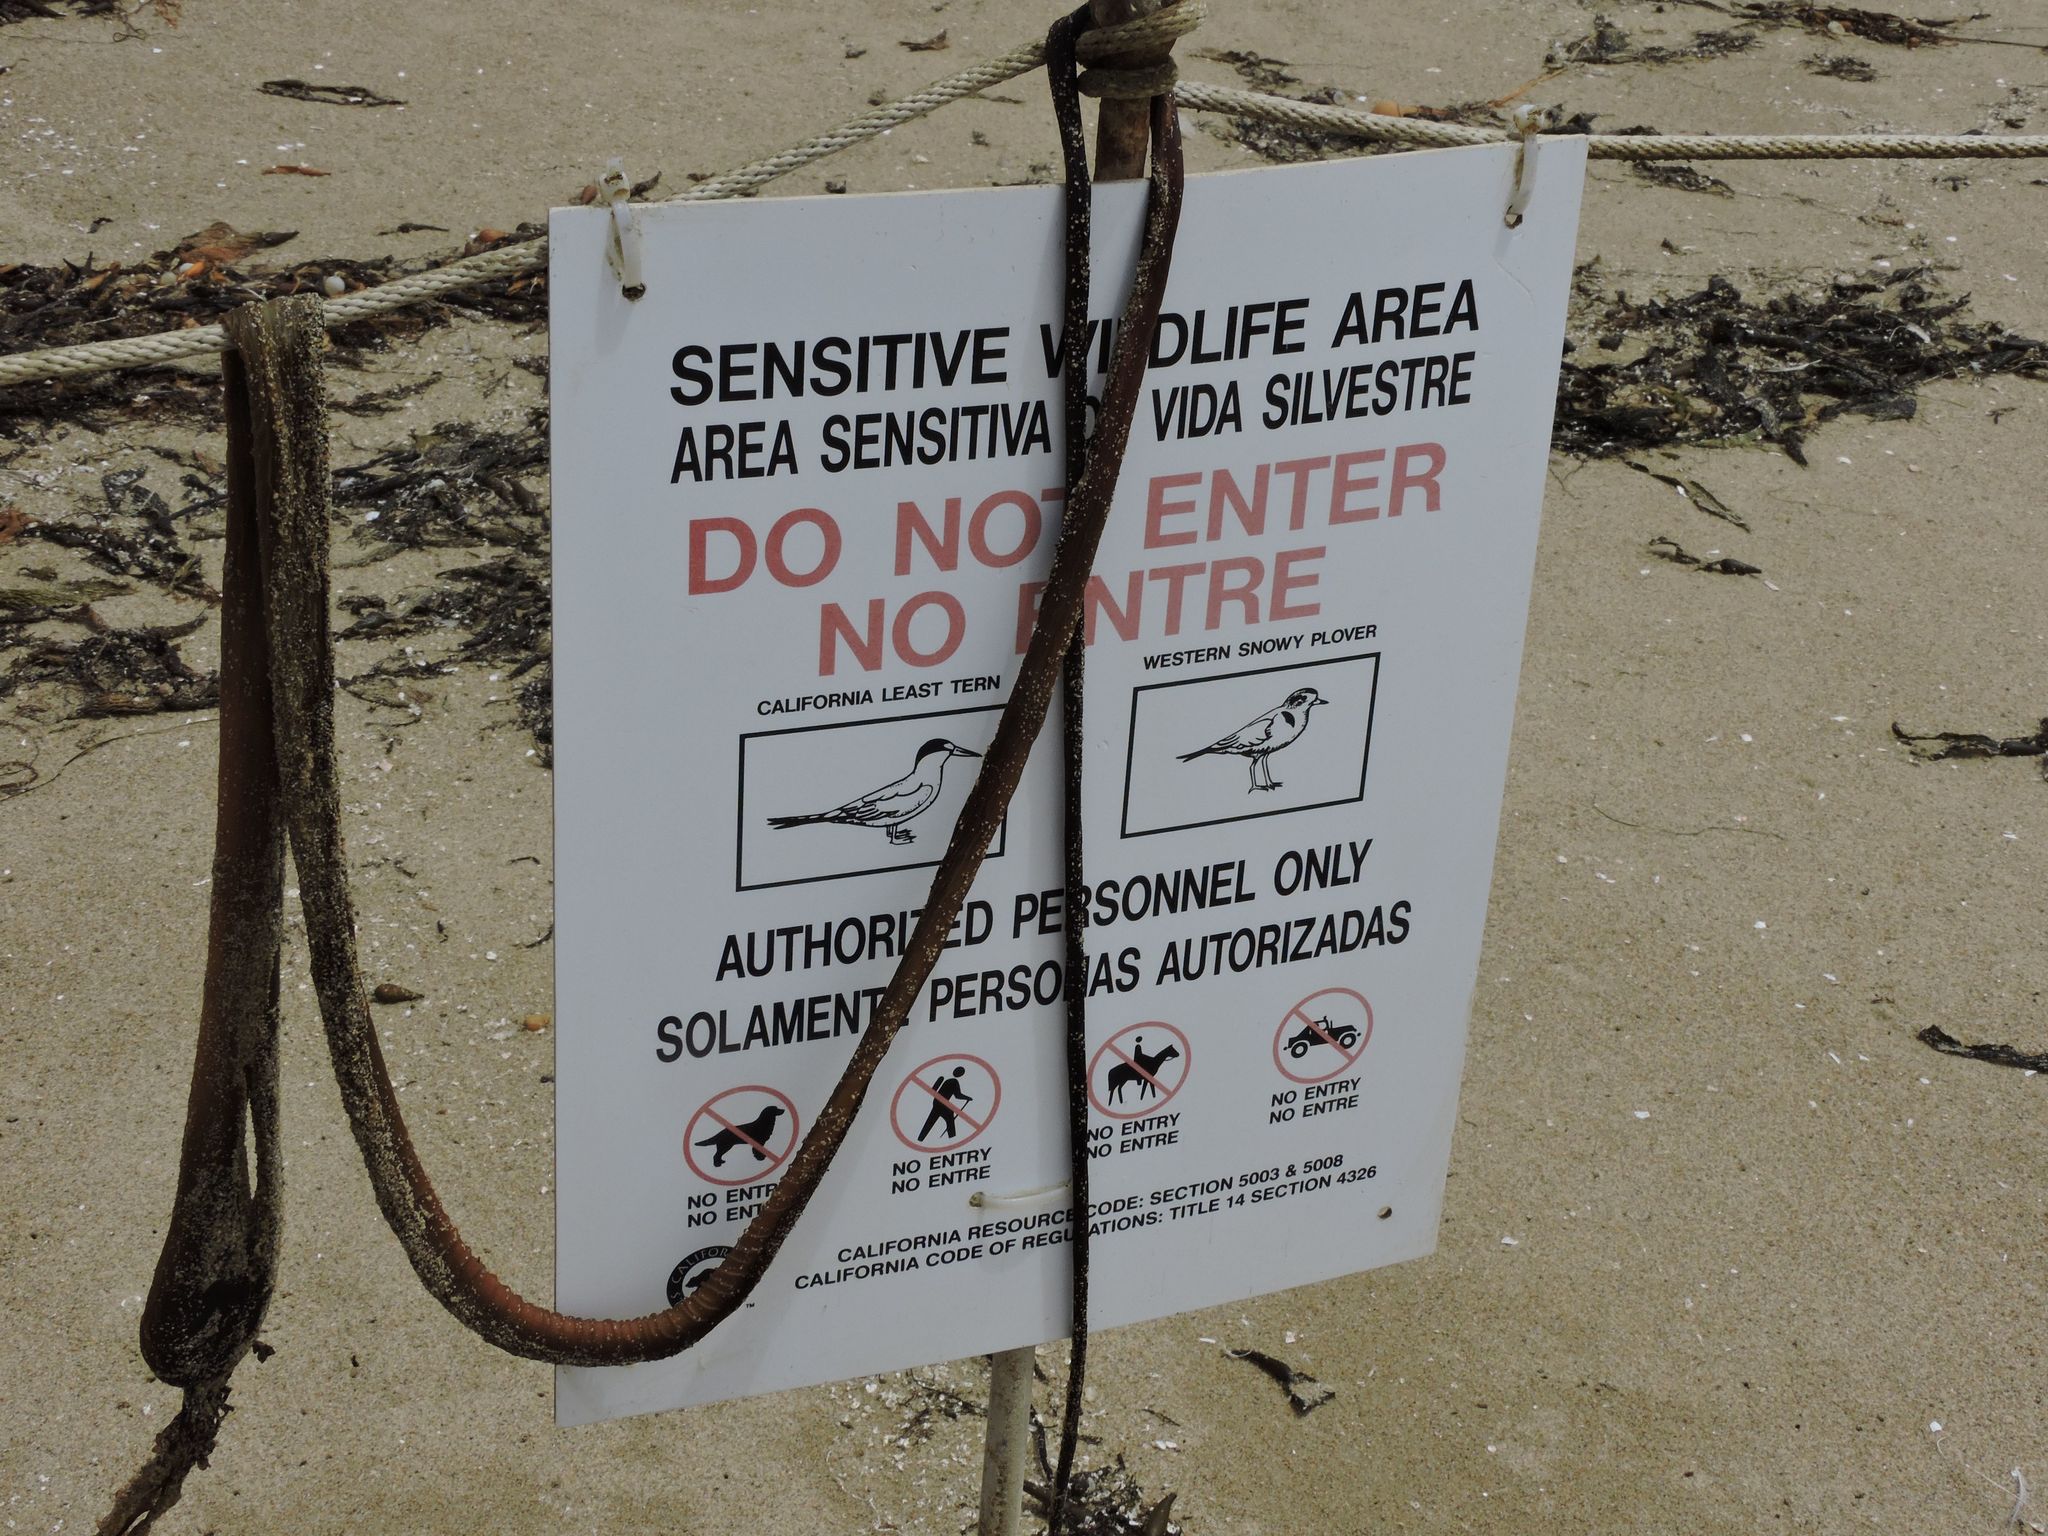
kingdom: Animalia
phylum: Chordata
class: Aves
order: Charadriiformes
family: Laridae
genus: Sternula
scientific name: Sternula antillarum
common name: Least tern
